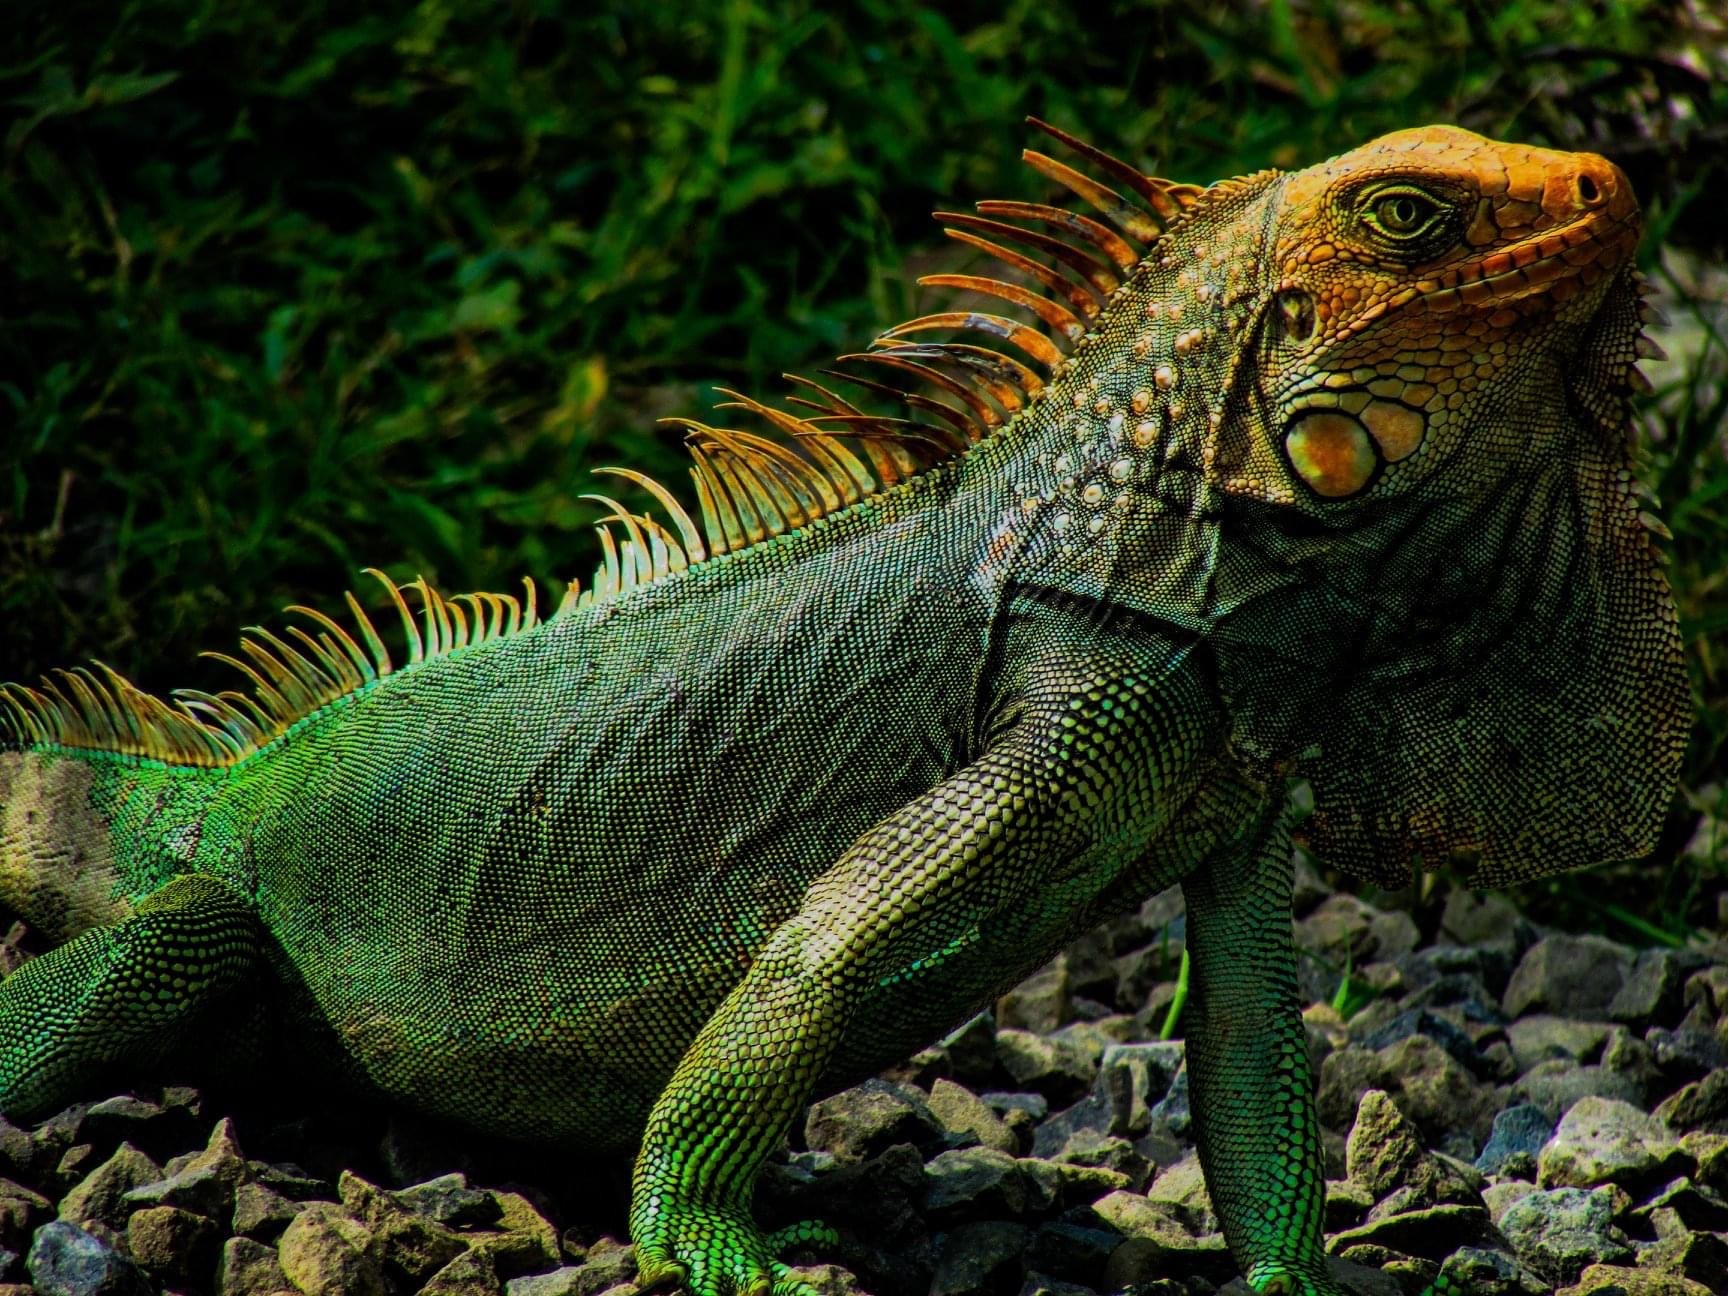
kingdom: Animalia
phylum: Chordata
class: Squamata
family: Iguanidae
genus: Iguana
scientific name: Iguana iguana
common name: Green iguana
